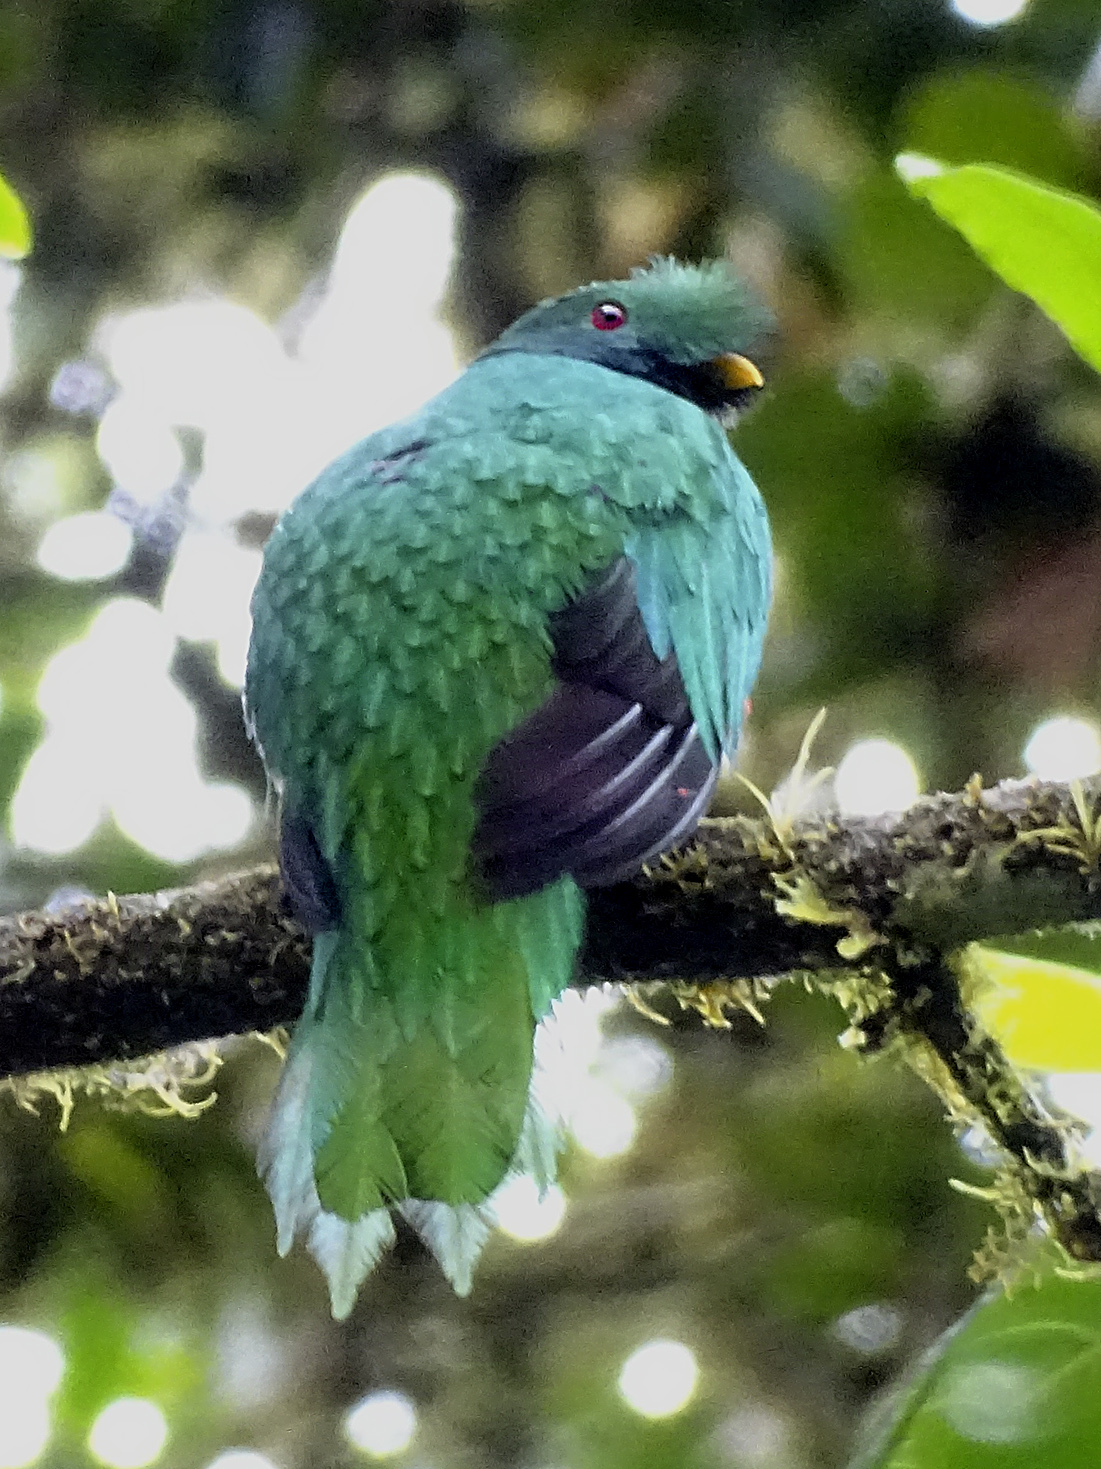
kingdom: Animalia
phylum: Chordata
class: Aves
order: Trogoniformes
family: Trogonidae
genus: Pharomachrus
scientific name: Pharomachrus antisianus
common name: Crested quetzal
